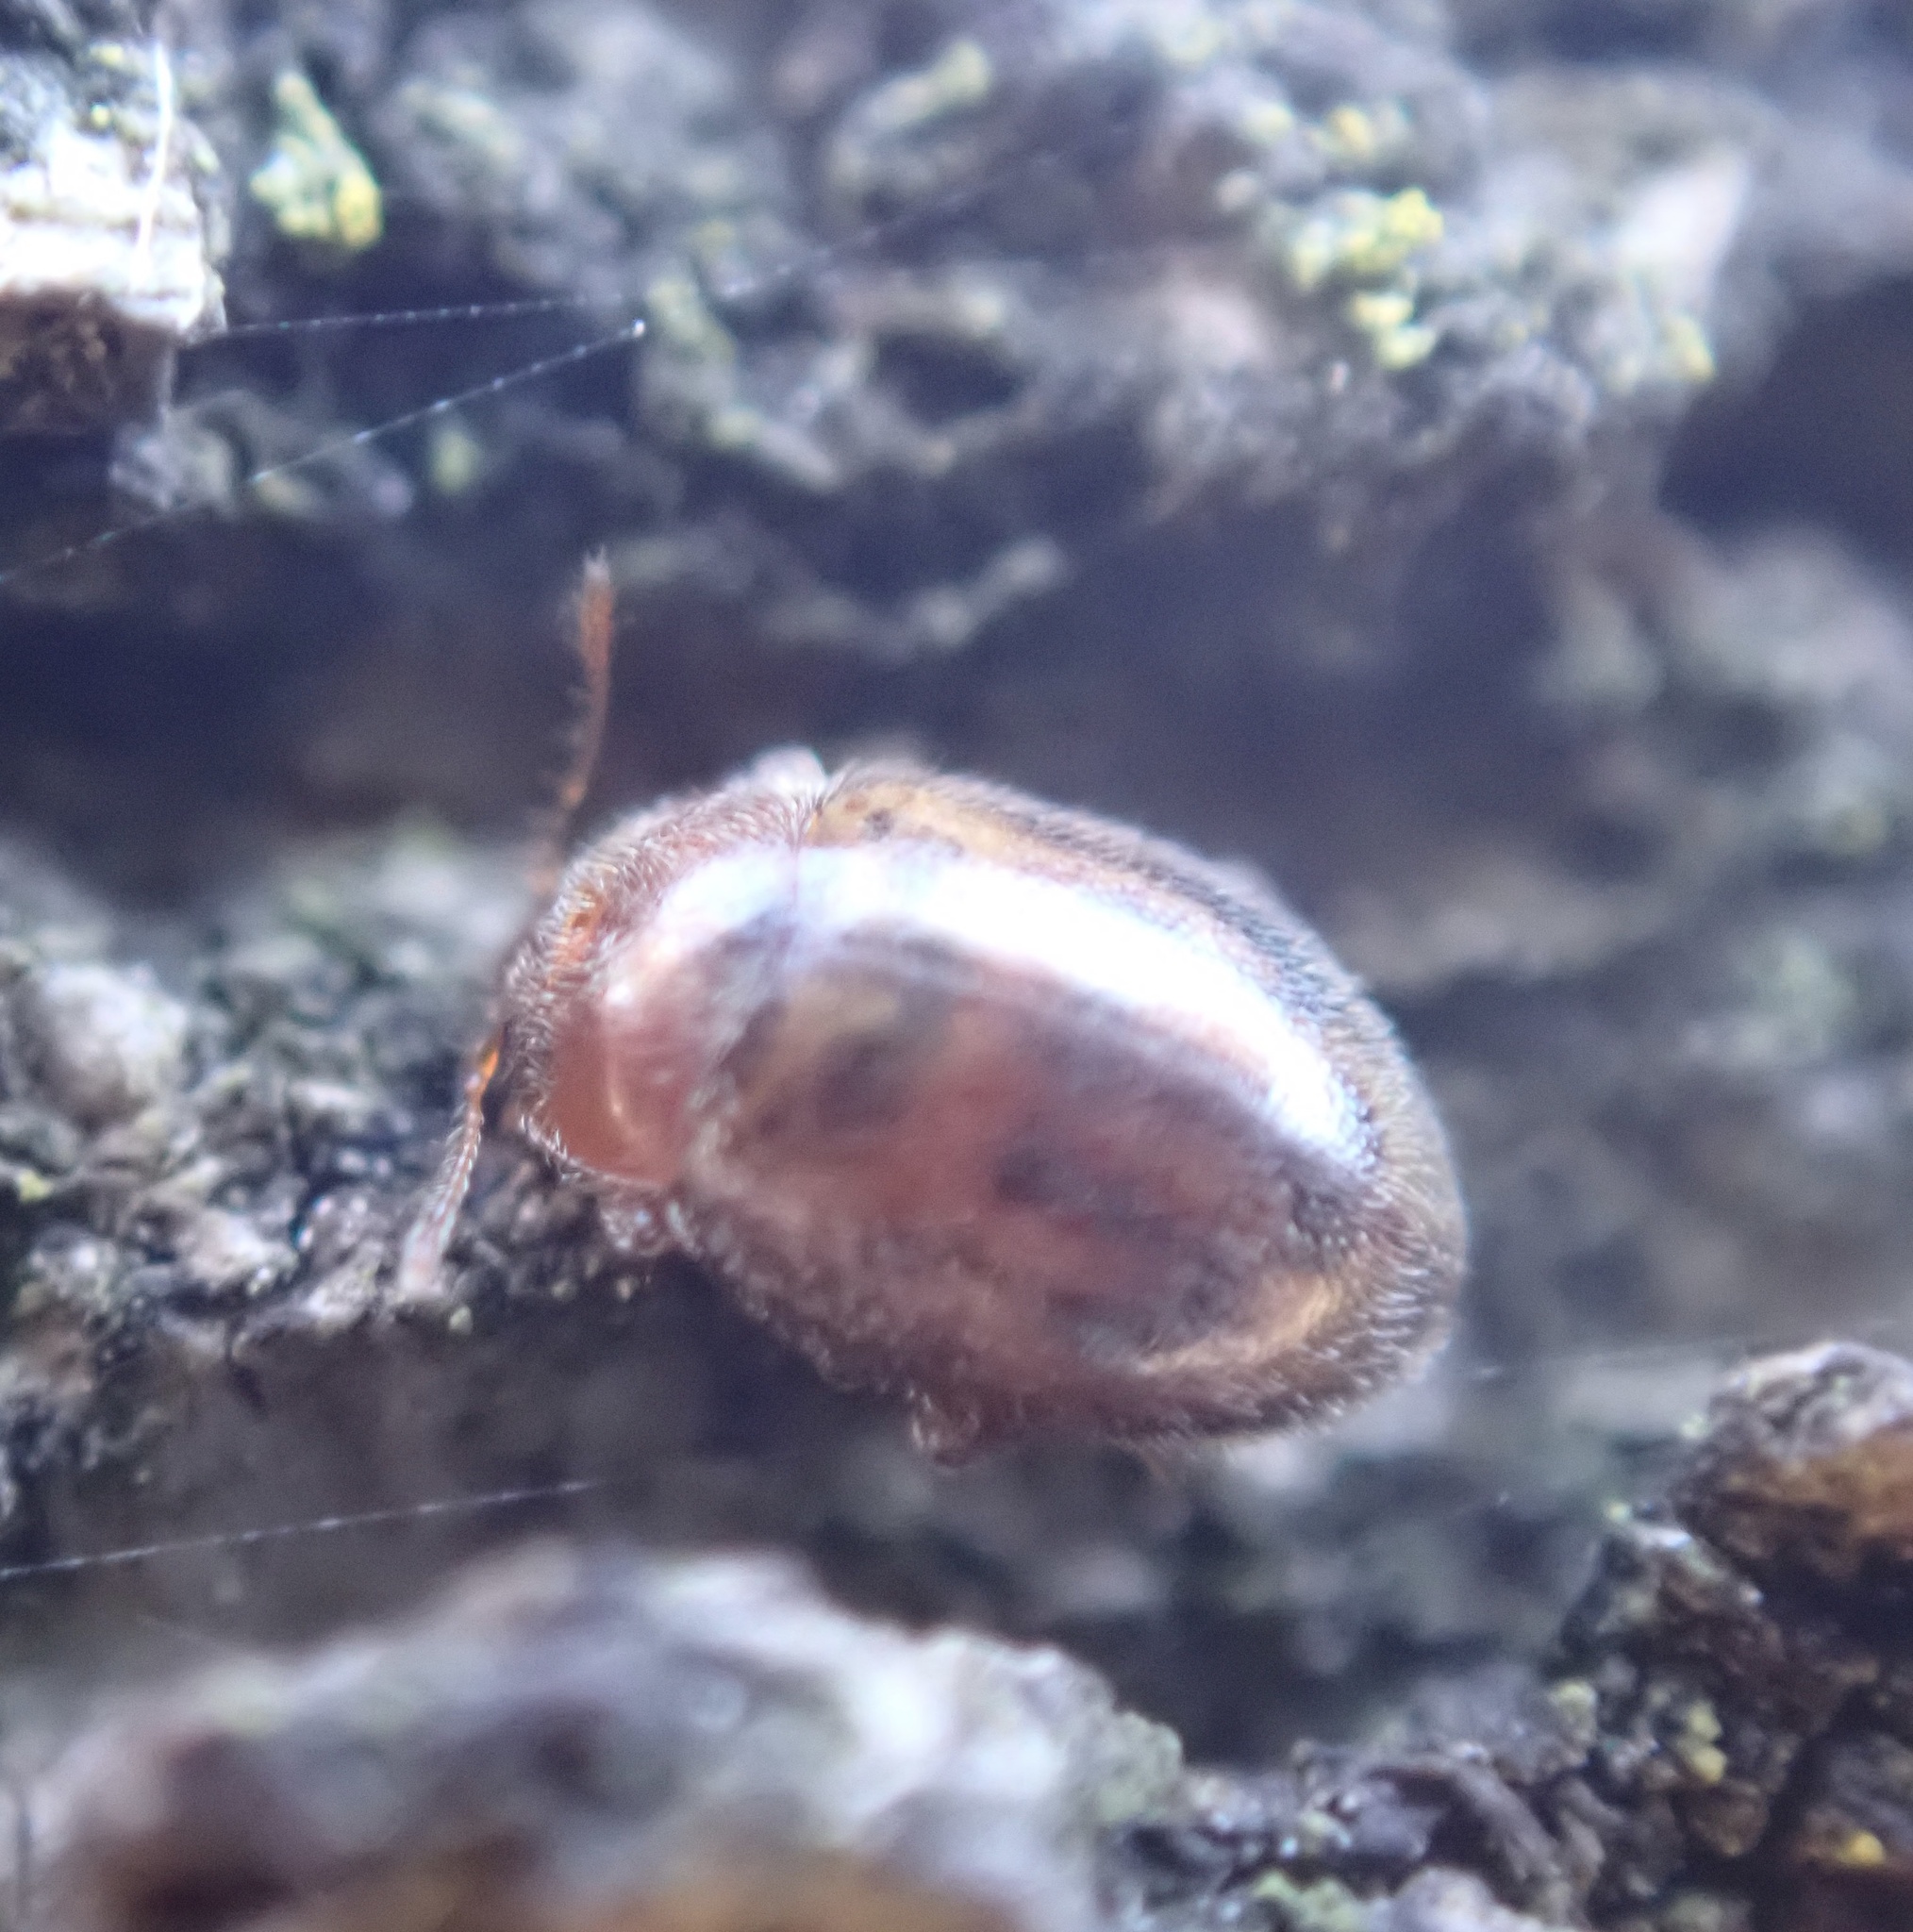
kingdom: Animalia
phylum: Arthropoda
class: Insecta
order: Coleoptera
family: Coccinellidae
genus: Rhyzobius
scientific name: Rhyzobius chrysomeloides
